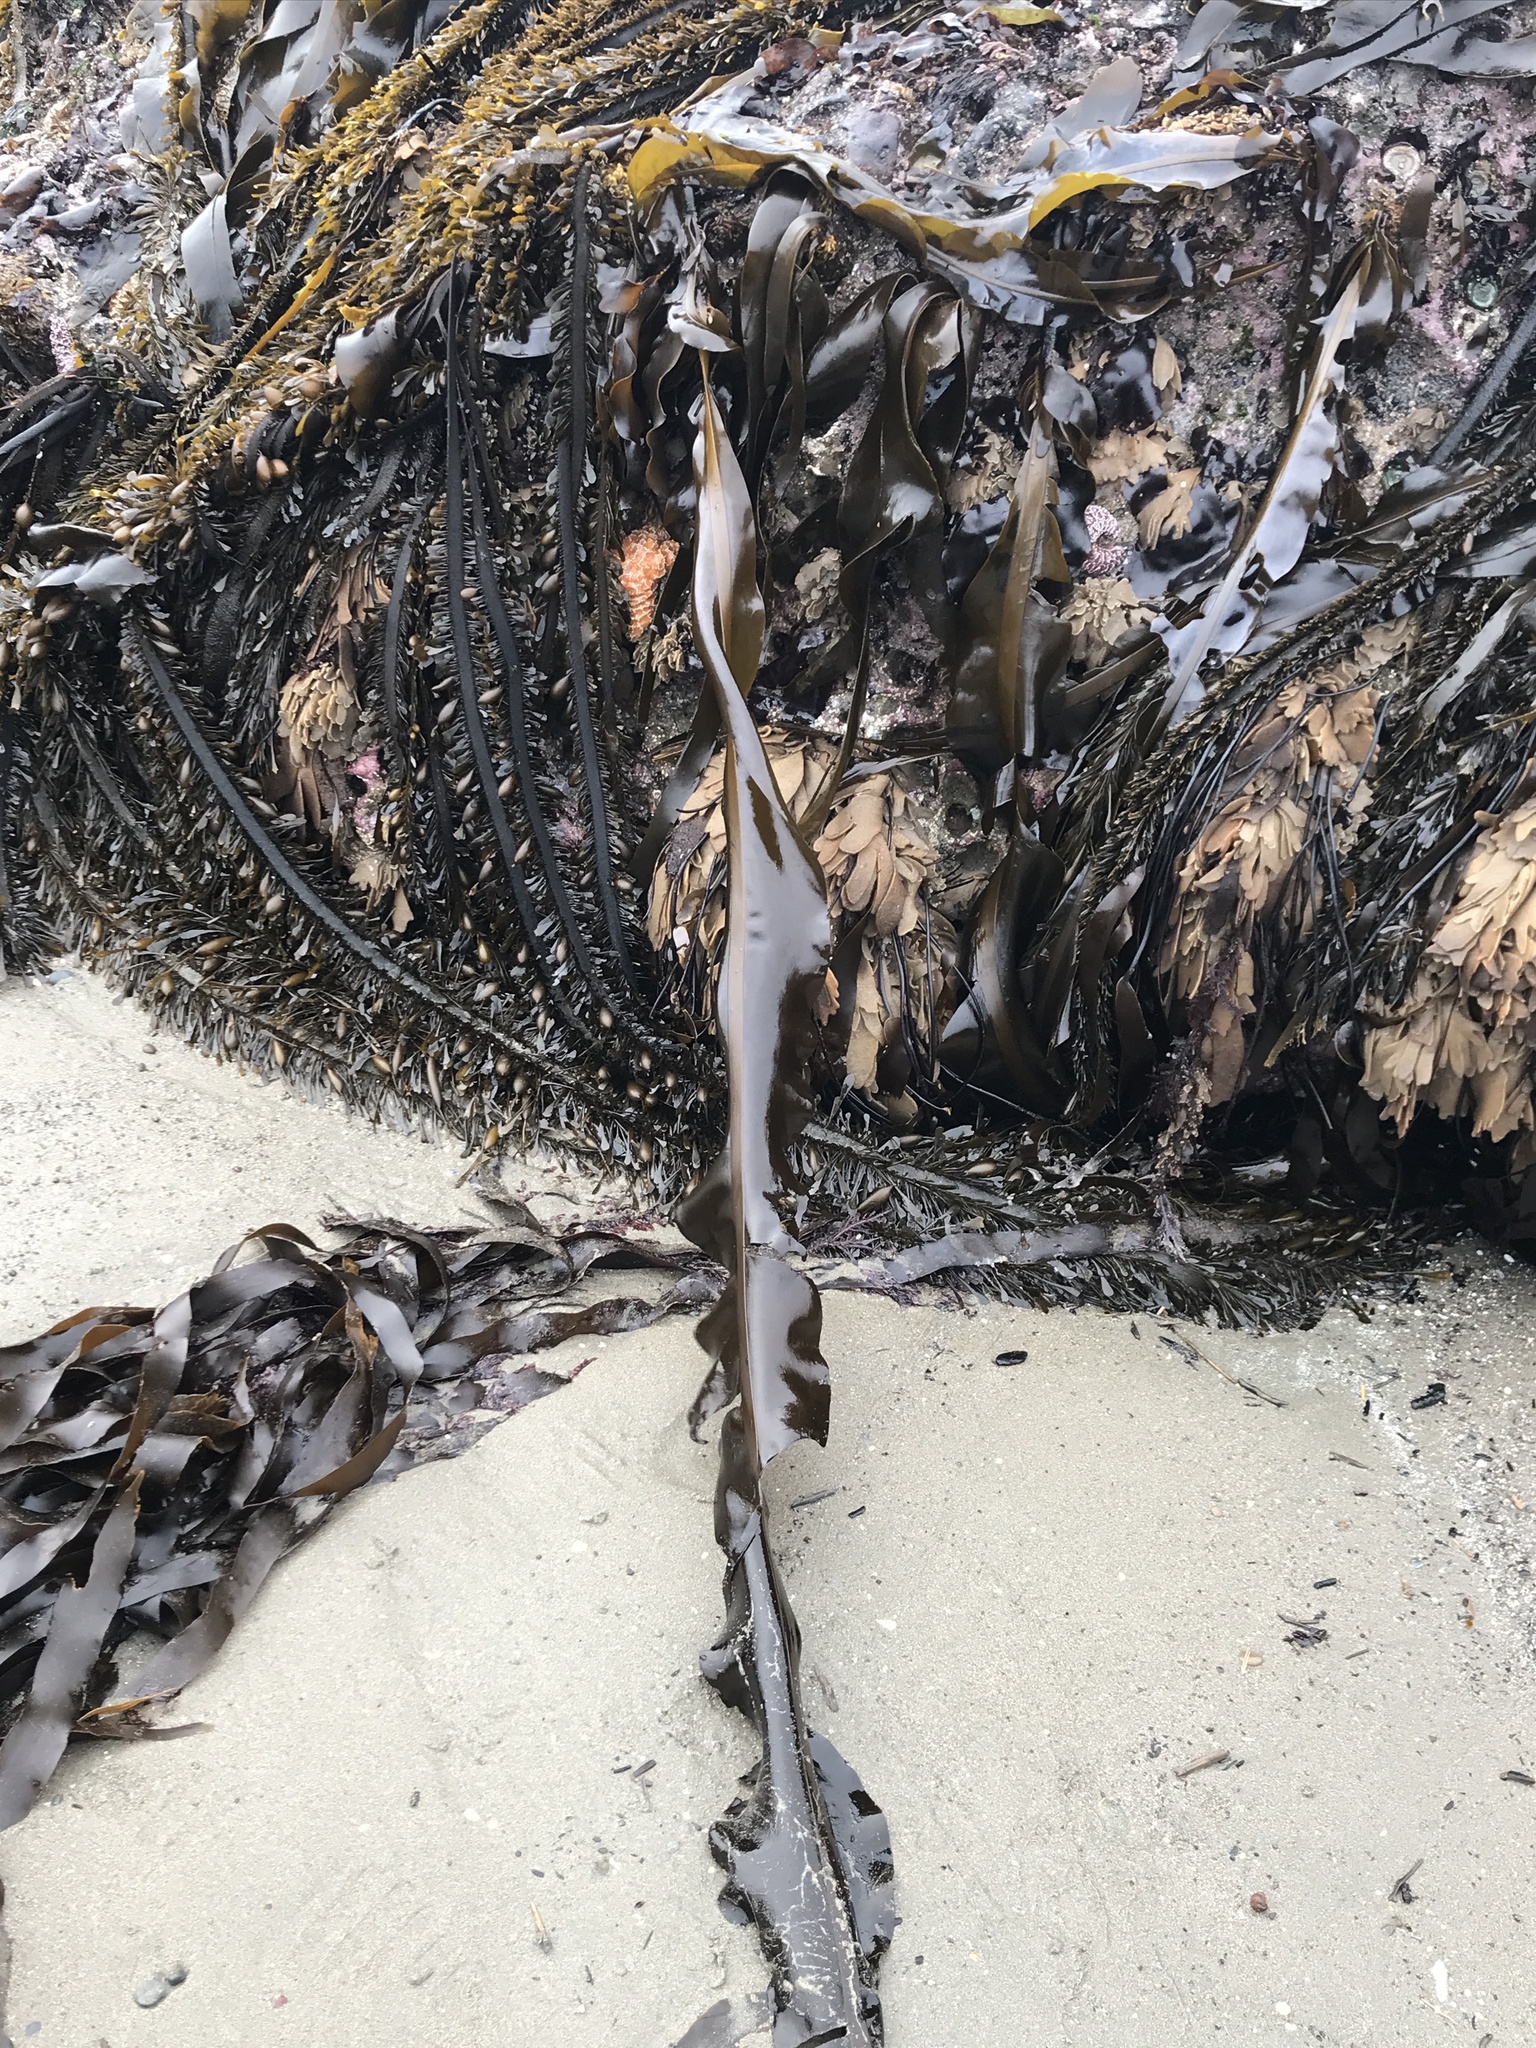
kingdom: Chromista
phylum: Ochrophyta
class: Phaeophyceae
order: Laminariales
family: Alariaceae
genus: Alaria
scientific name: Alaria marginata
